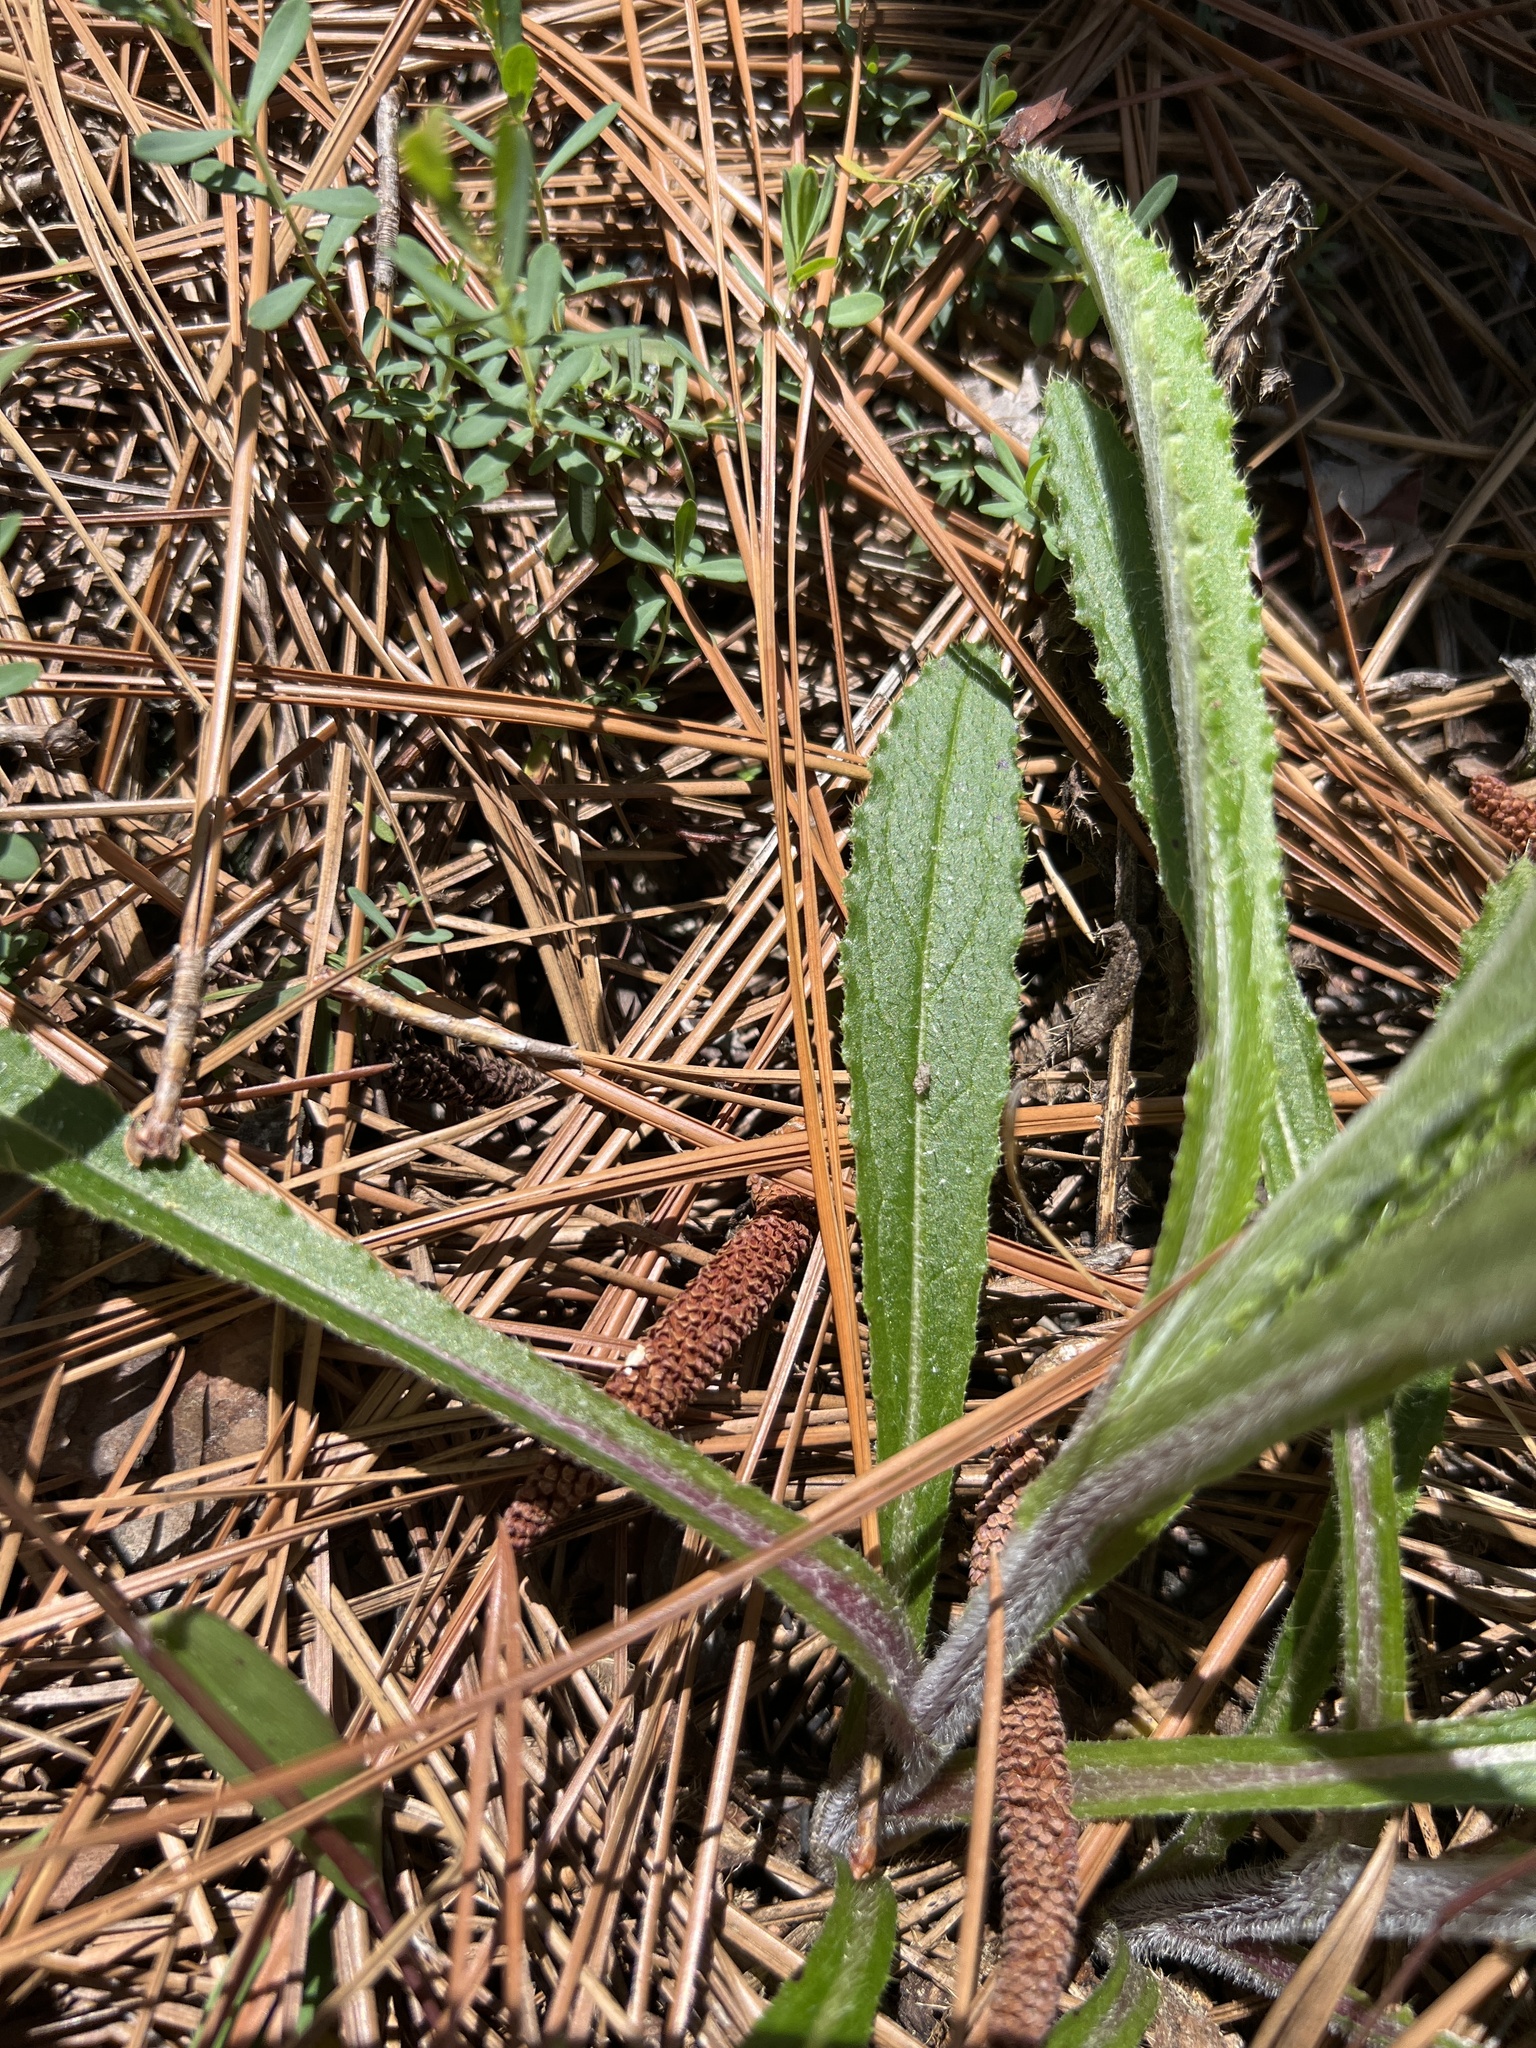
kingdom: Plantae
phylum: Tracheophyta
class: Magnoliopsida
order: Asterales
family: Asteraceae
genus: Cirsium
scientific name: Cirsium repandum
